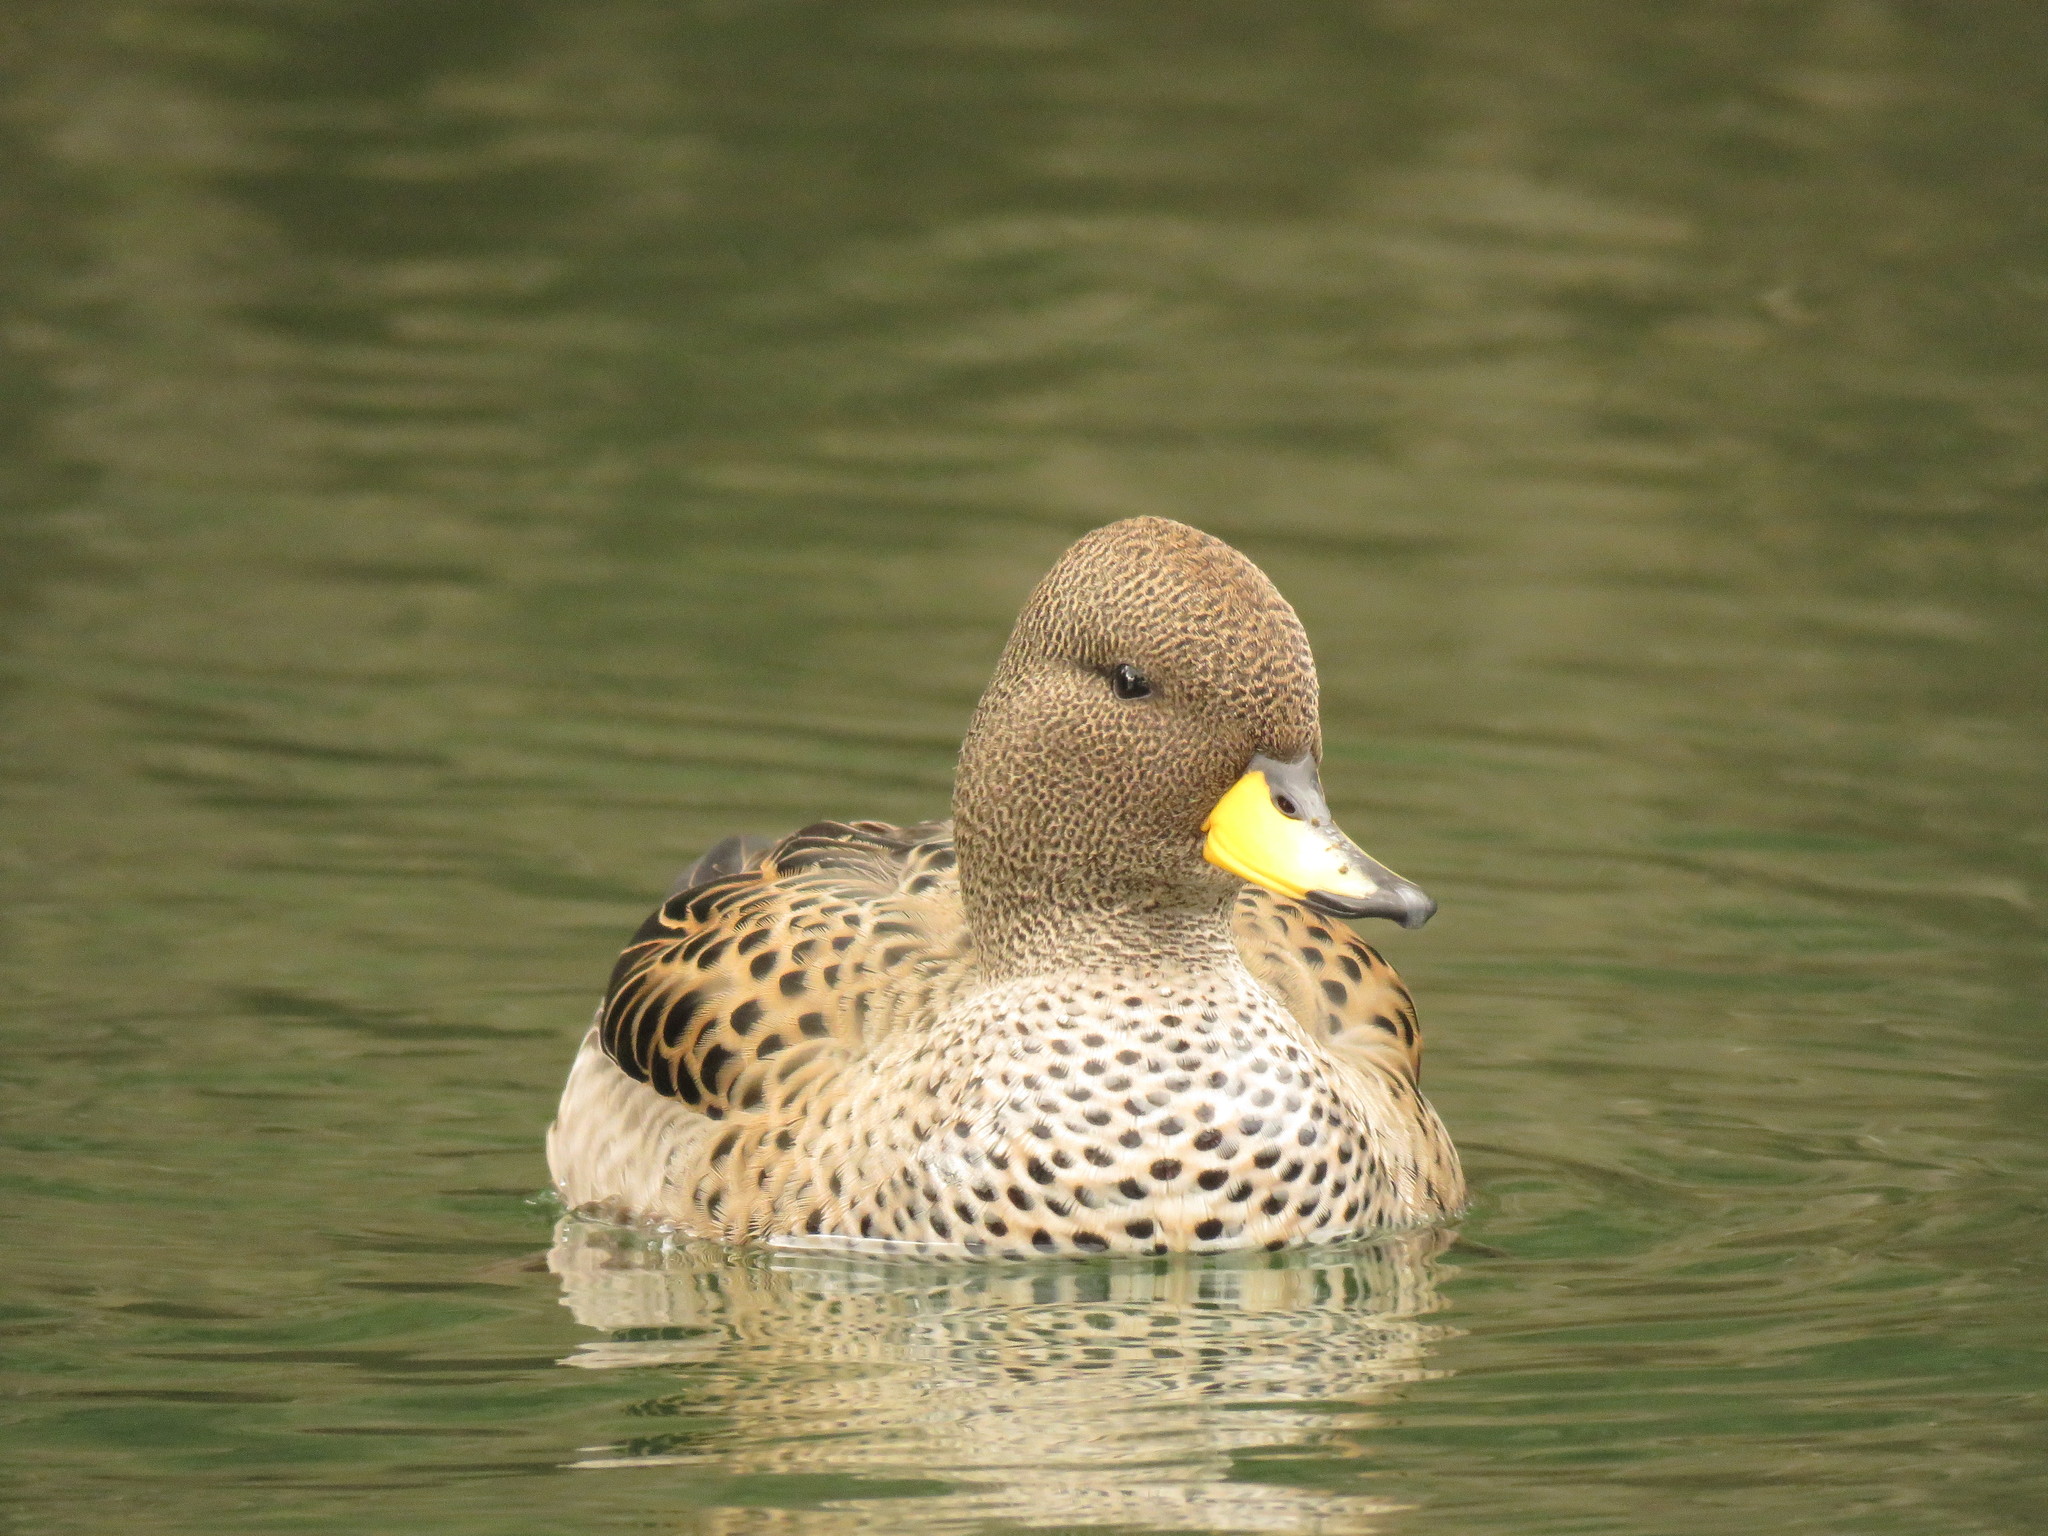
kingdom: Animalia
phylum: Chordata
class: Aves
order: Anseriformes
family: Anatidae
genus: Anas
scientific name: Anas flavirostris
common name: Yellow-billed teal
